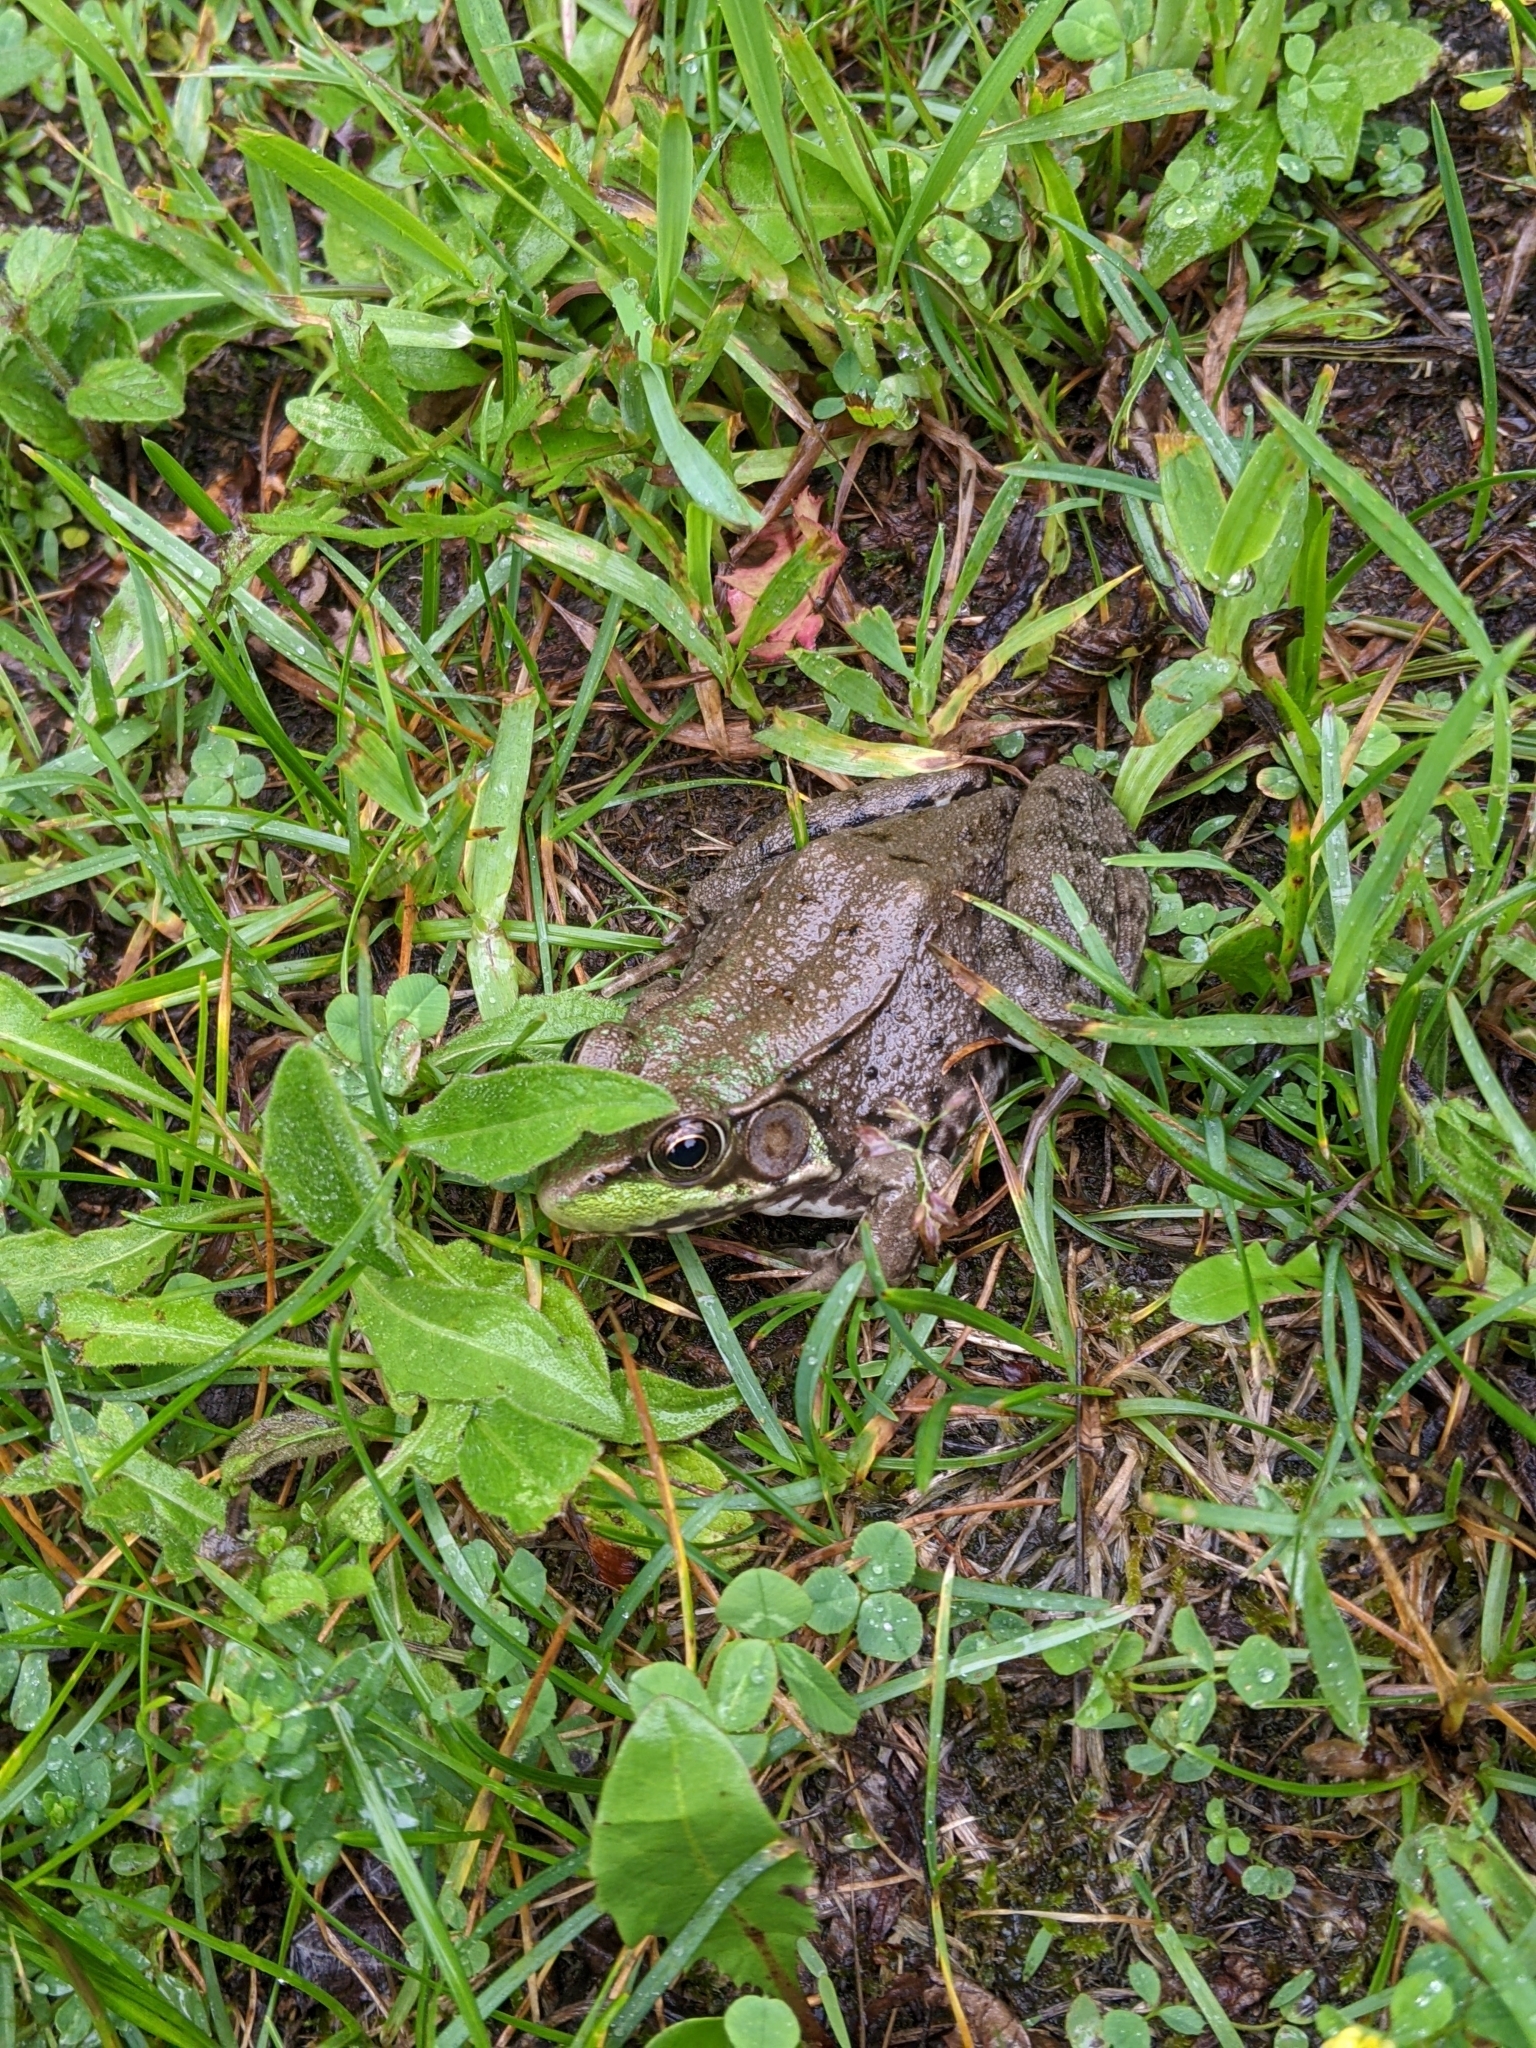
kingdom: Animalia
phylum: Chordata
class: Amphibia
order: Anura
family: Ranidae
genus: Lithobates
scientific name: Lithobates clamitans
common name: Green frog
